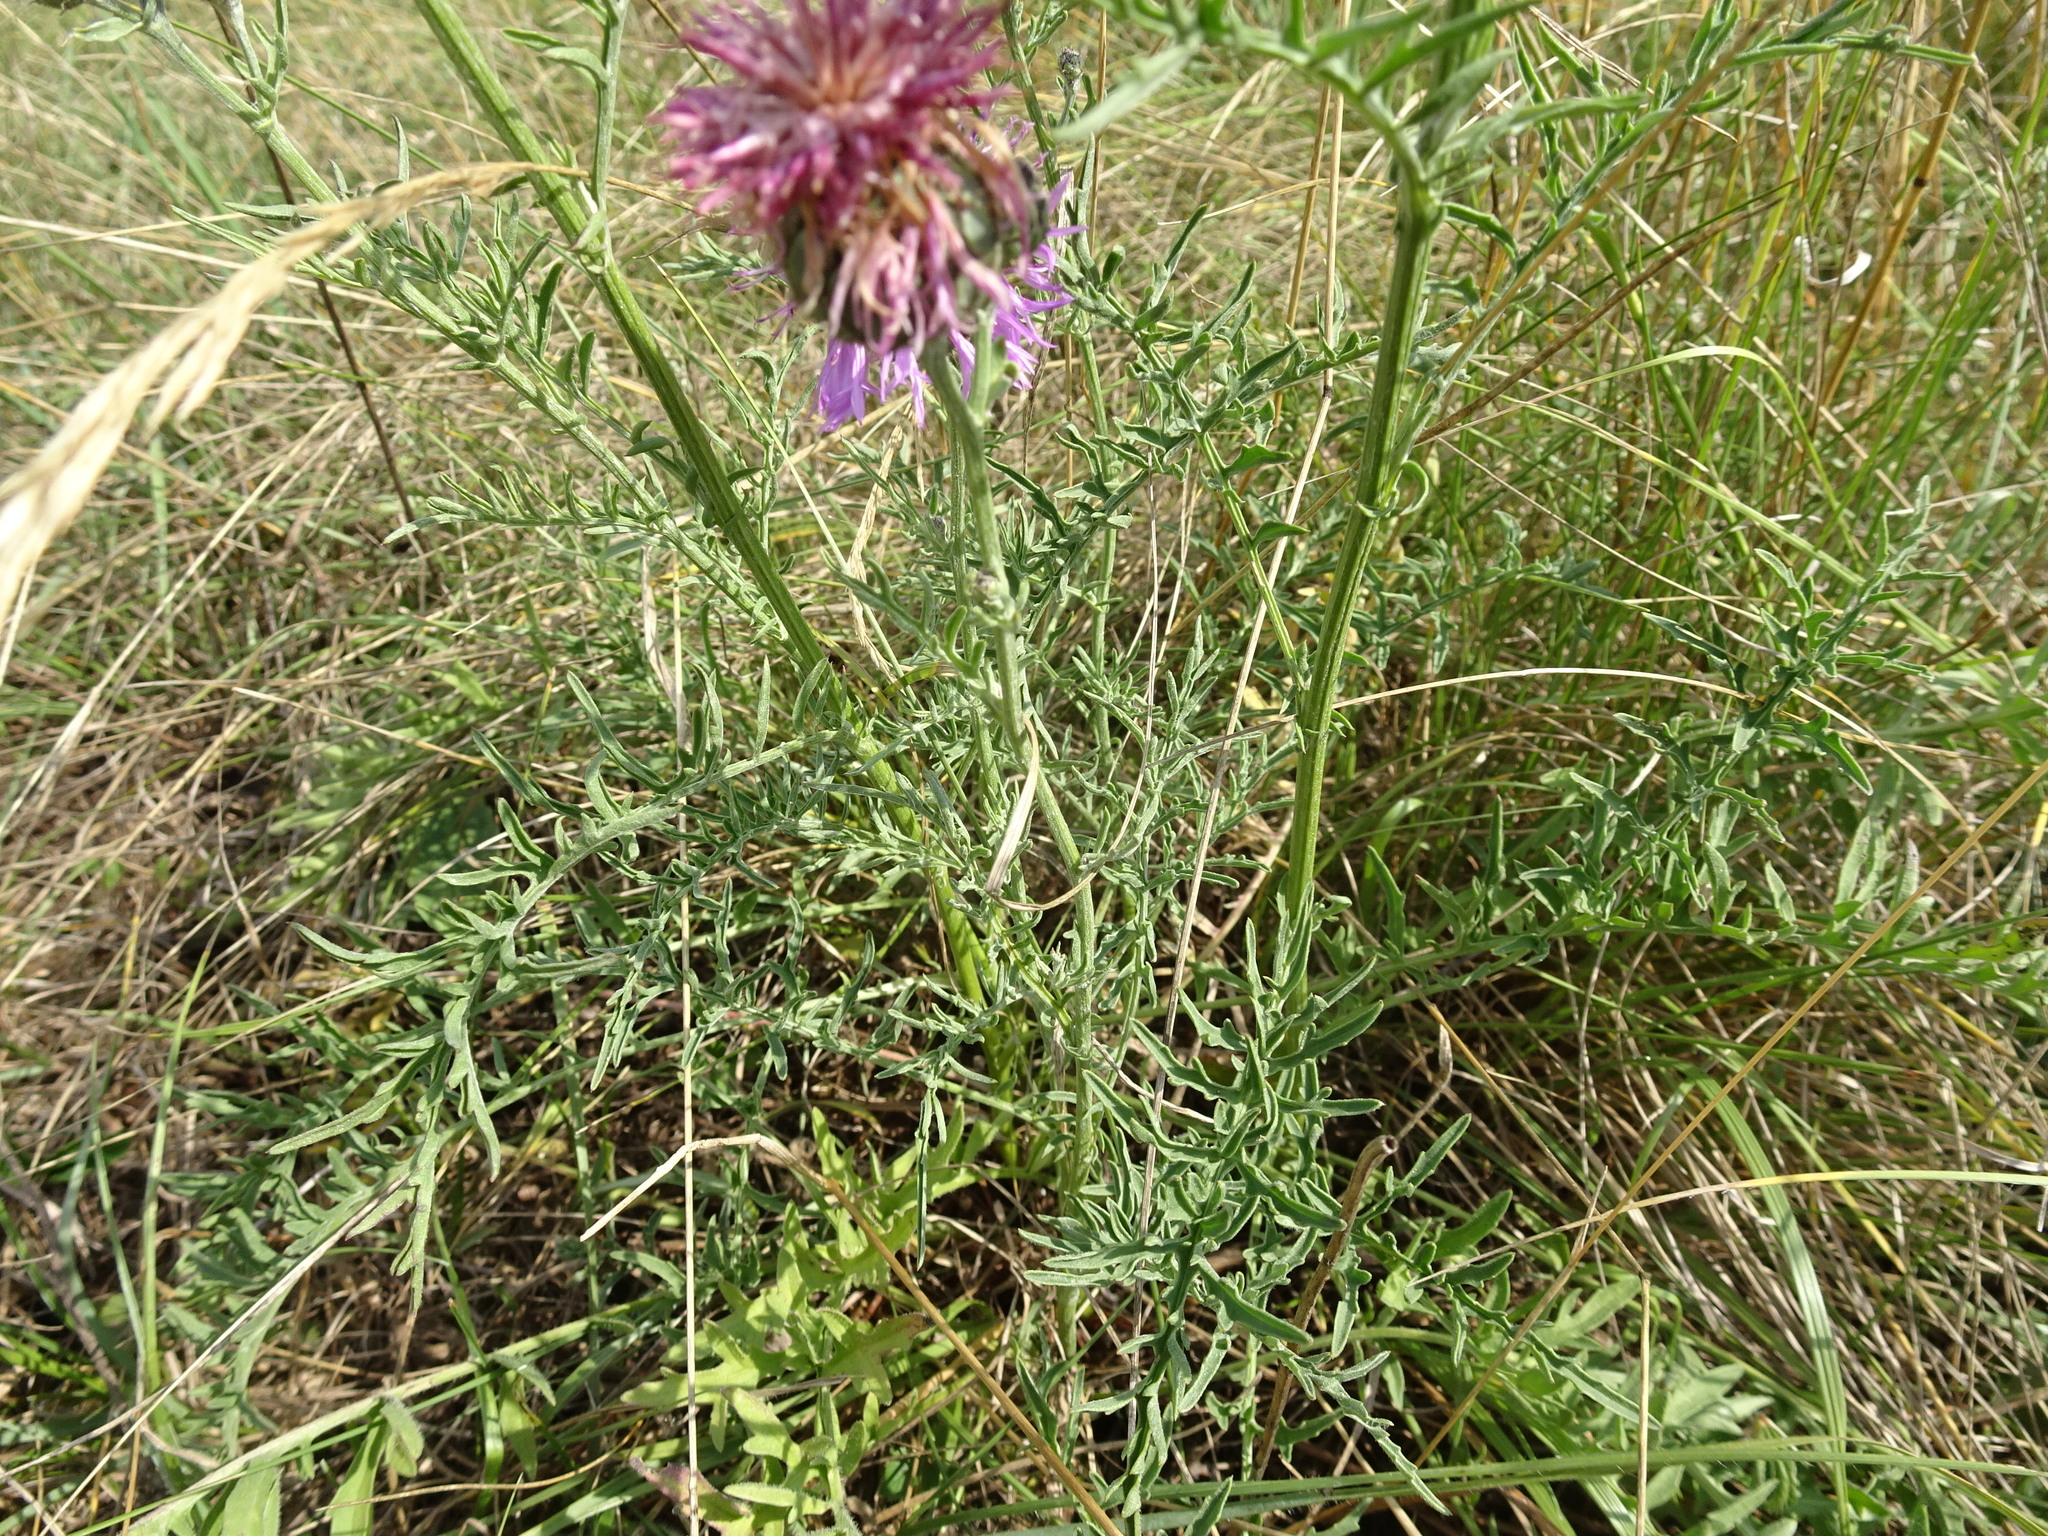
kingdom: Plantae
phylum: Tracheophyta
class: Magnoliopsida
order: Asterales
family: Asteraceae
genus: Centaurea
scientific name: Centaurea scabiosa
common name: Greater knapweed
